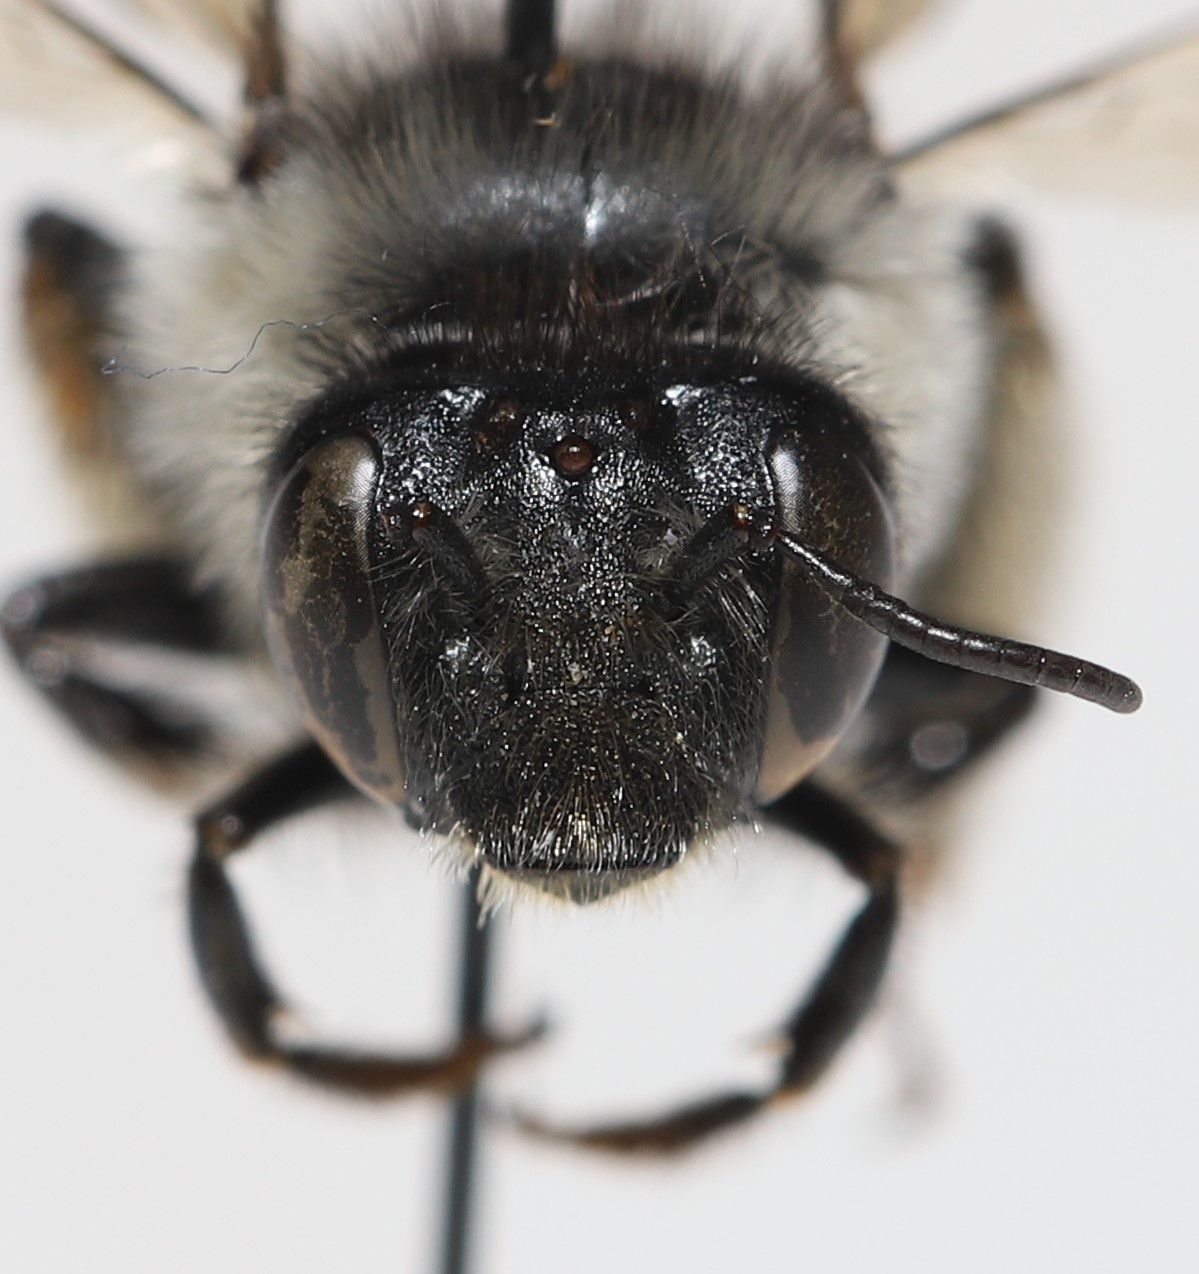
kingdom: Animalia
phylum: Arthropoda
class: Insecta
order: Hymenoptera
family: Apidae
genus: Anthophora
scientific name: Anthophora terminalis
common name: Orange-tipped wood-digger bee
